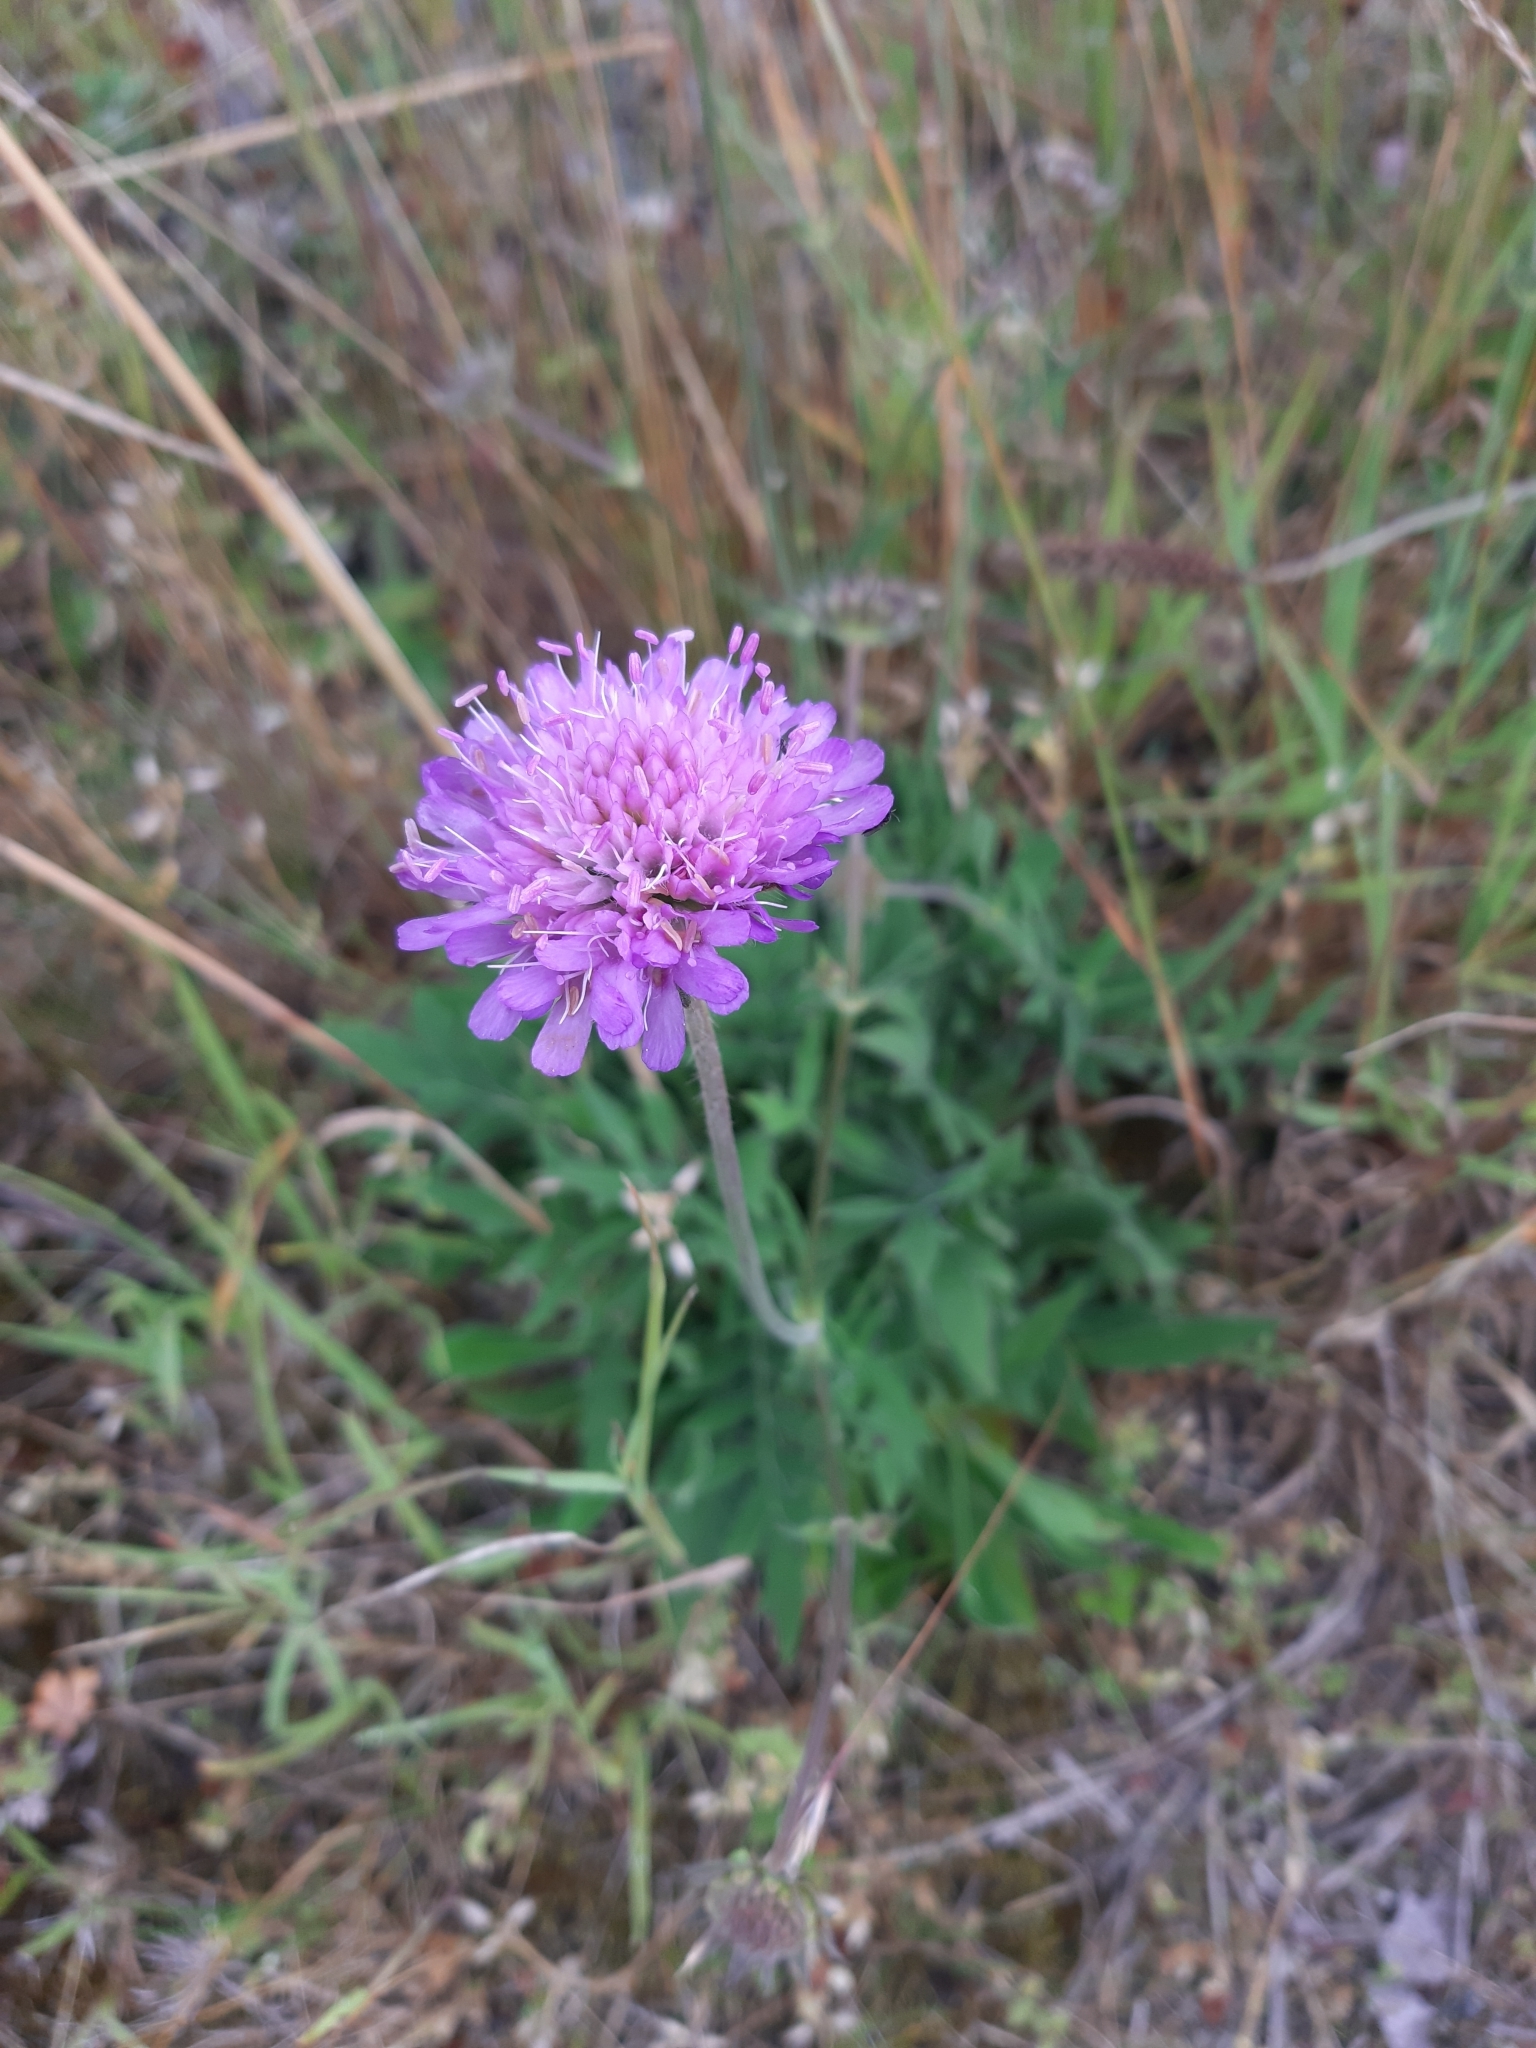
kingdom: Plantae
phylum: Tracheophyta
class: Magnoliopsida
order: Dipsacales
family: Caprifoliaceae
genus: Knautia
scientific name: Knautia arvensis
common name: Field scabiosa
